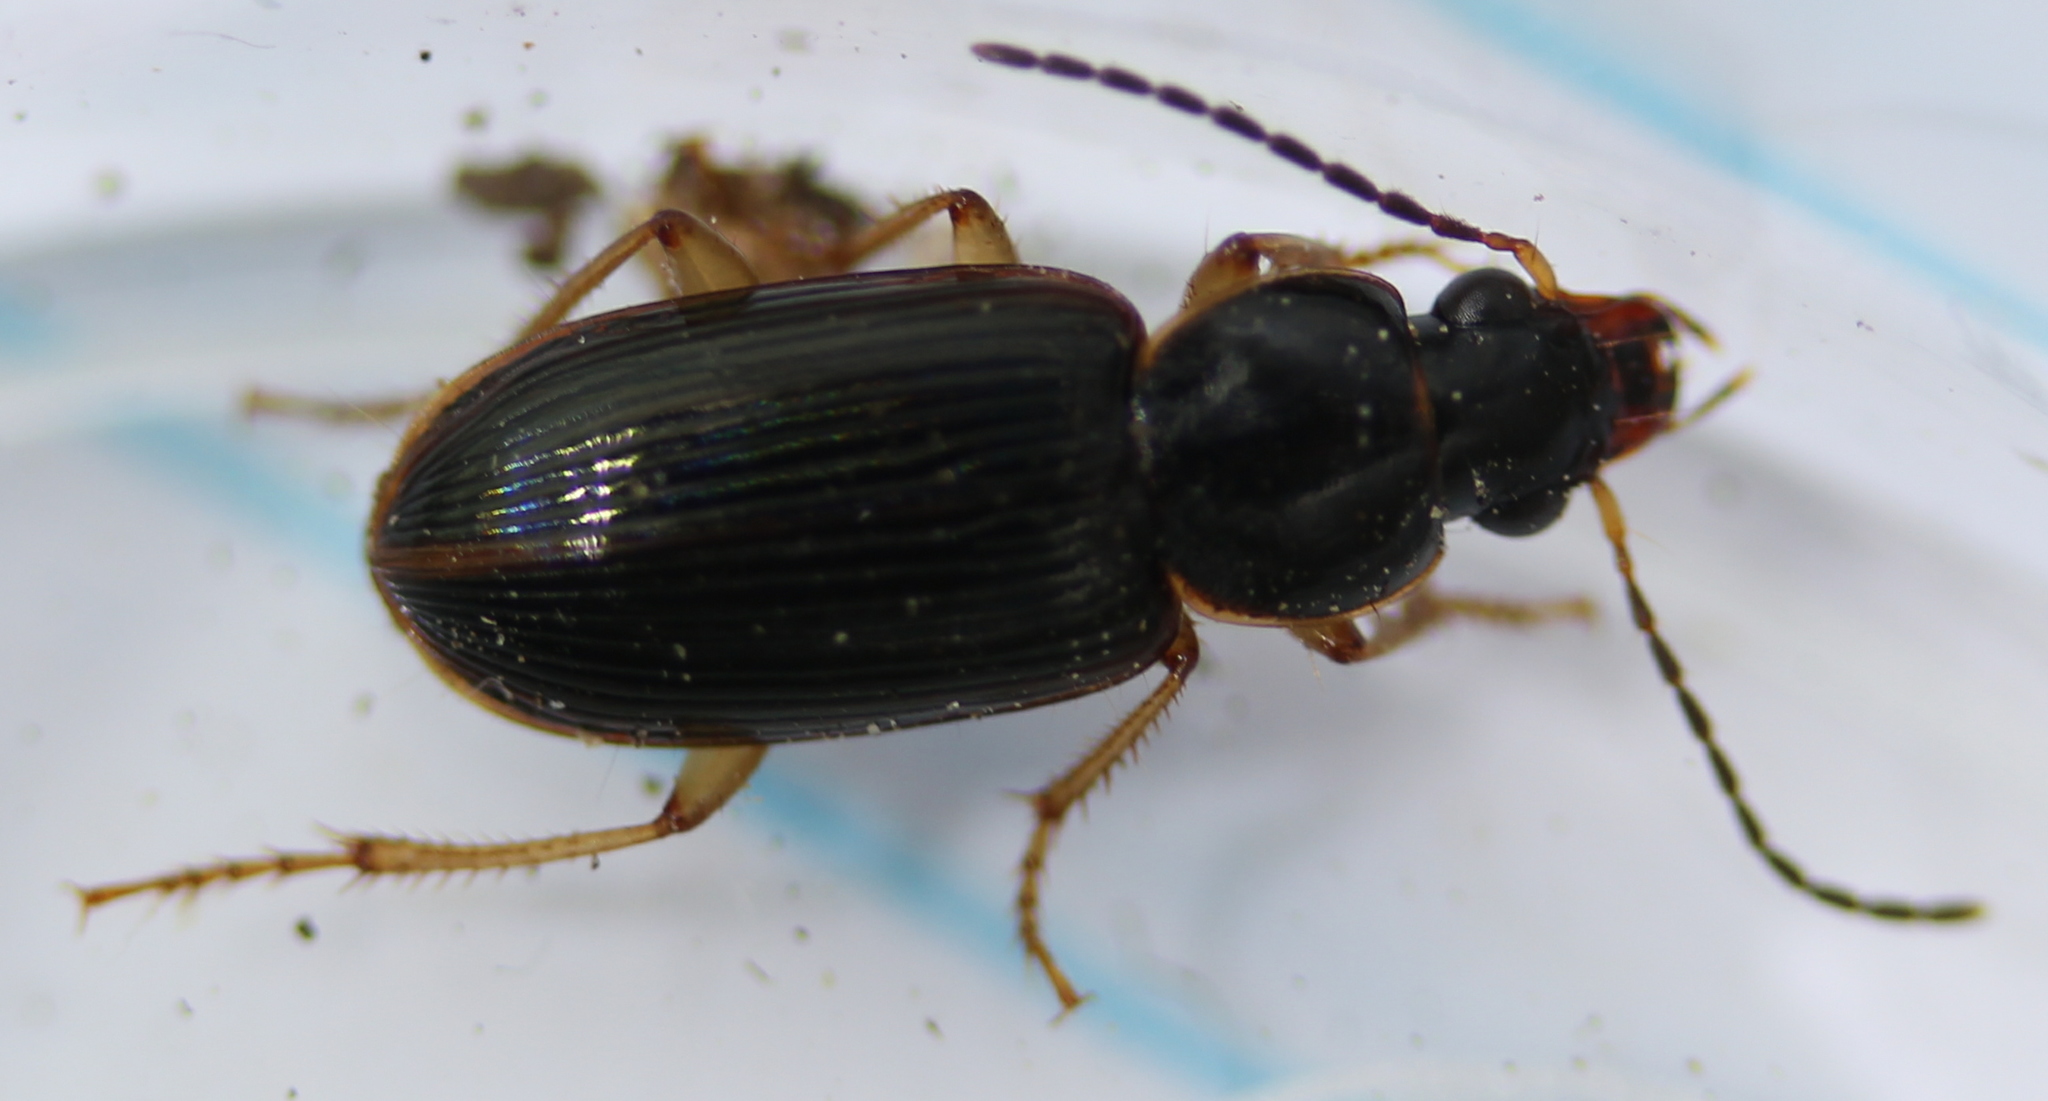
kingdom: Animalia
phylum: Arthropoda
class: Insecta
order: Coleoptera
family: Carabidae
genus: Stenolophus
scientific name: Stenolophus ochropezus
